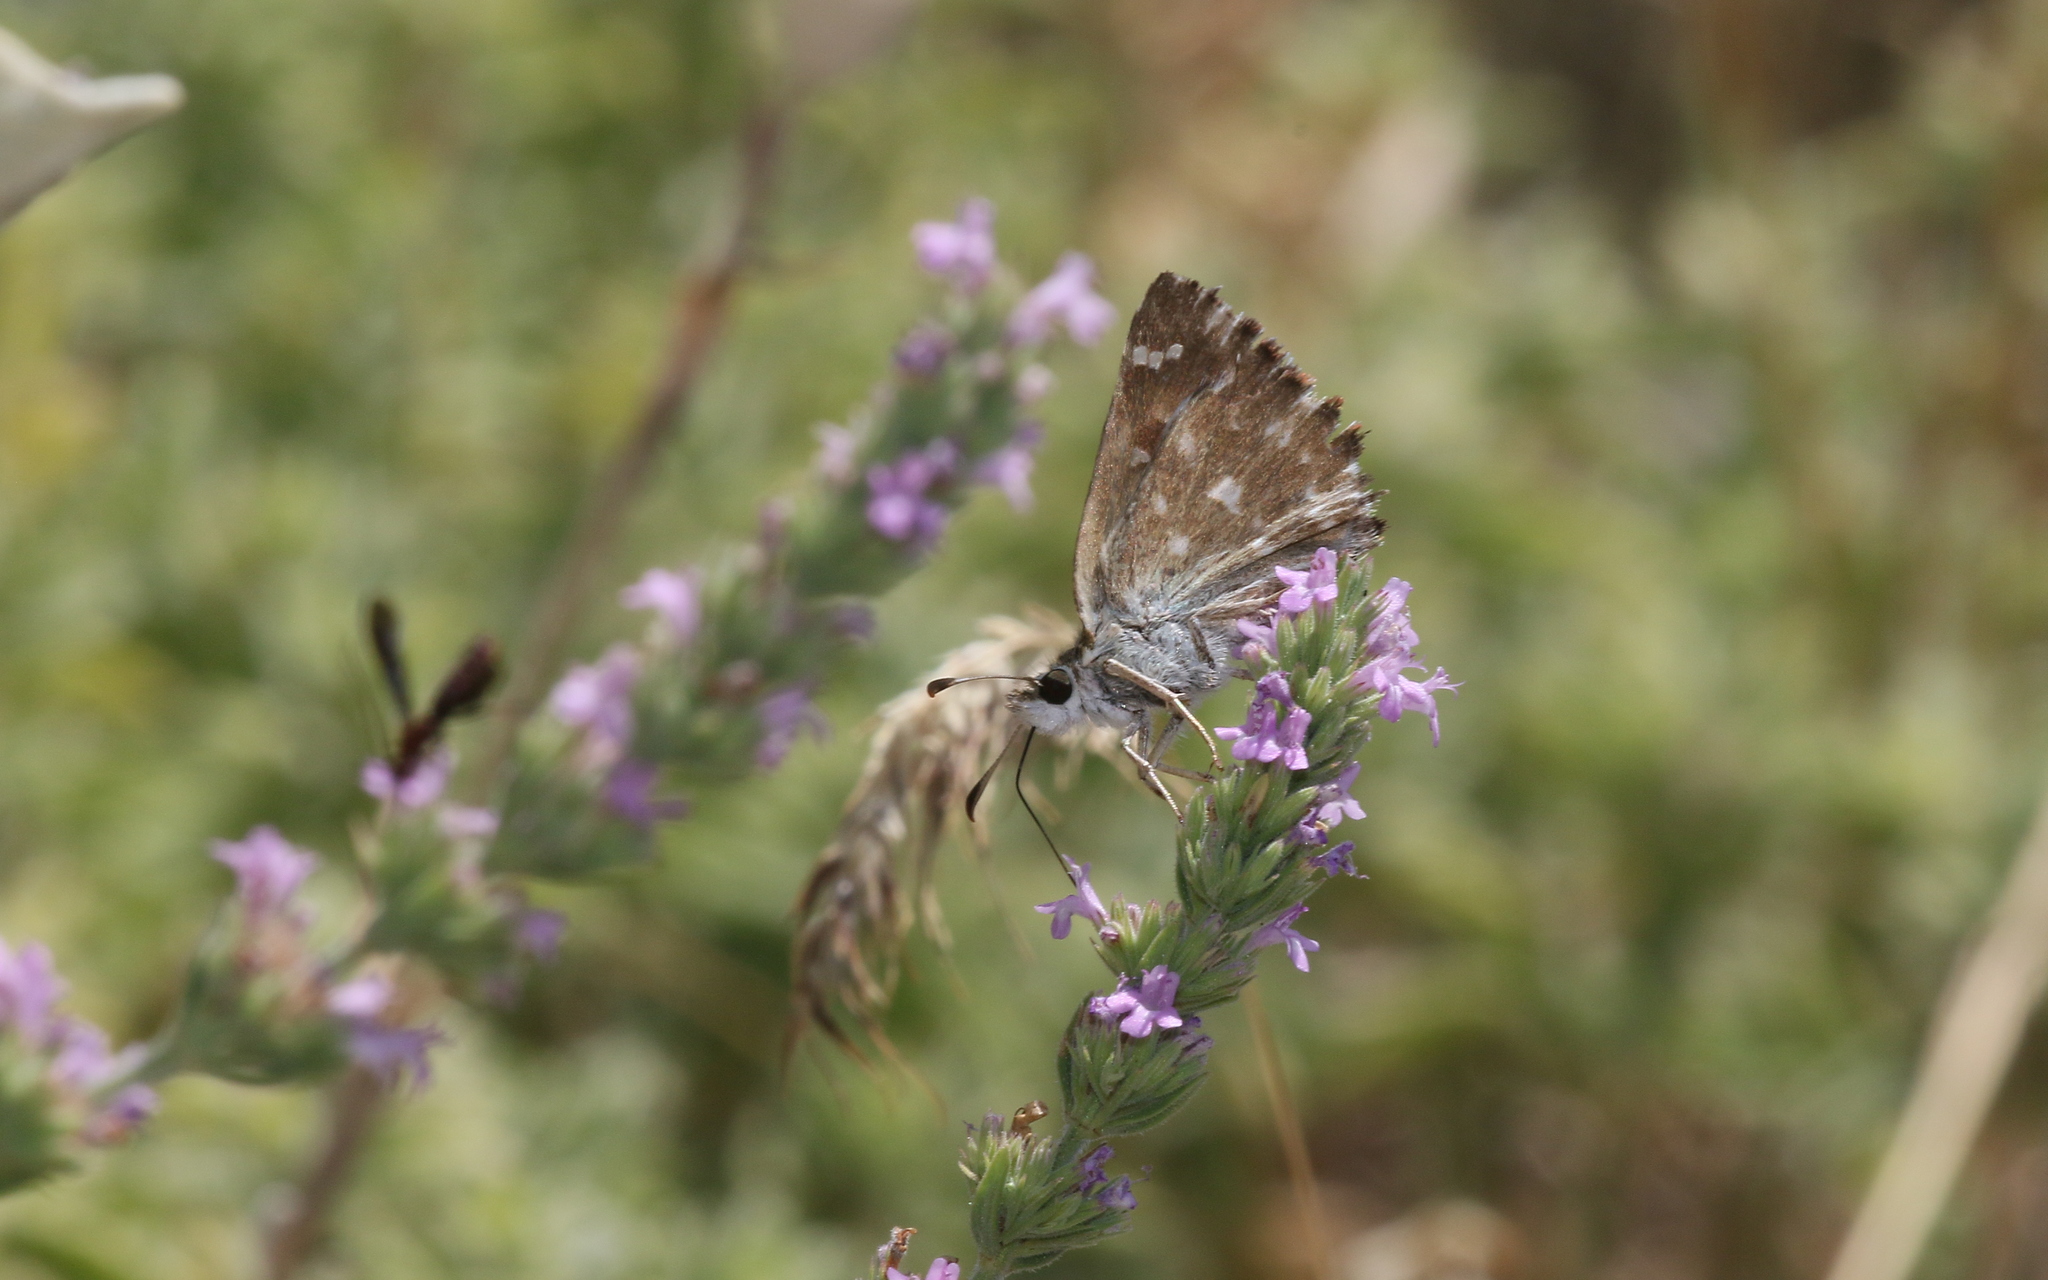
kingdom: Animalia
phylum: Arthropoda
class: Insecta
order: Lepidoptera
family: Hesperiidae
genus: Carcharodus
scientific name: Carcharodus alceae
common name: Mallow skipper
